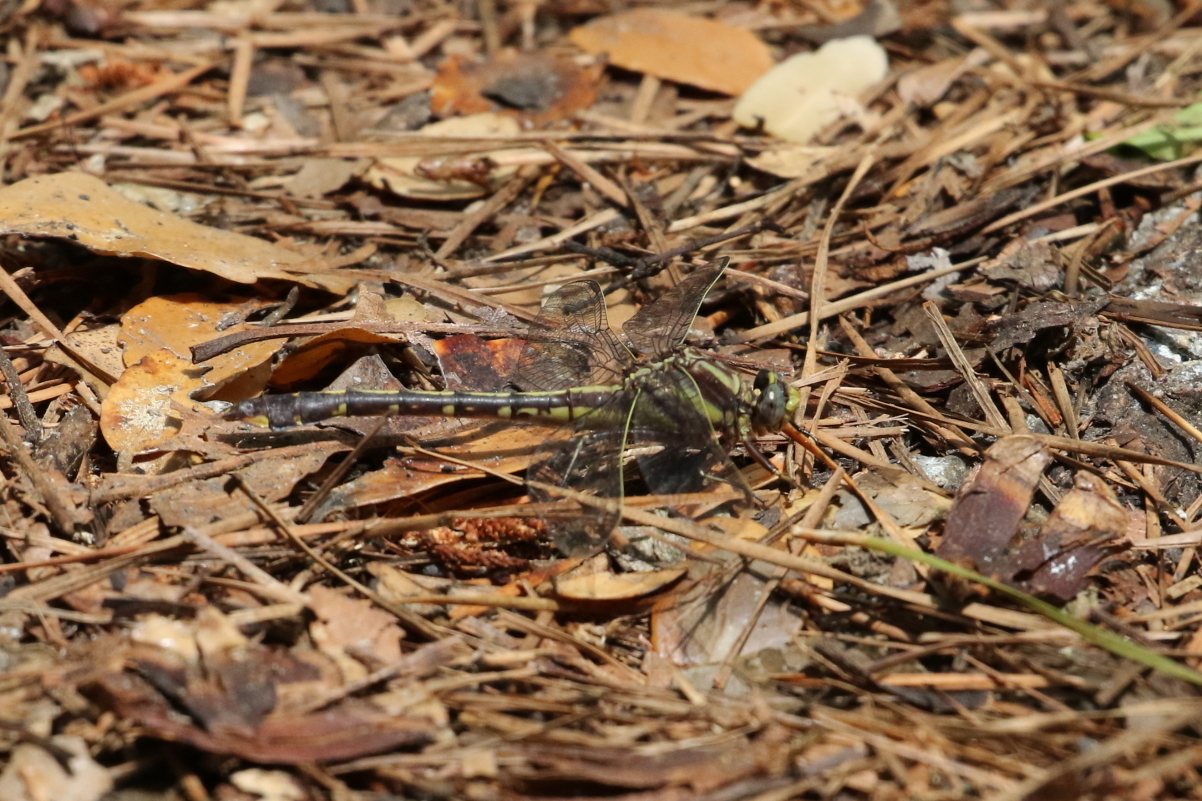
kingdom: Animalia
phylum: Arthropoda
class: Insecta
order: Odonata
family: Gomphidae
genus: Gomphurus
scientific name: Gomphurus hybridus
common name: Cocoa clubtail
